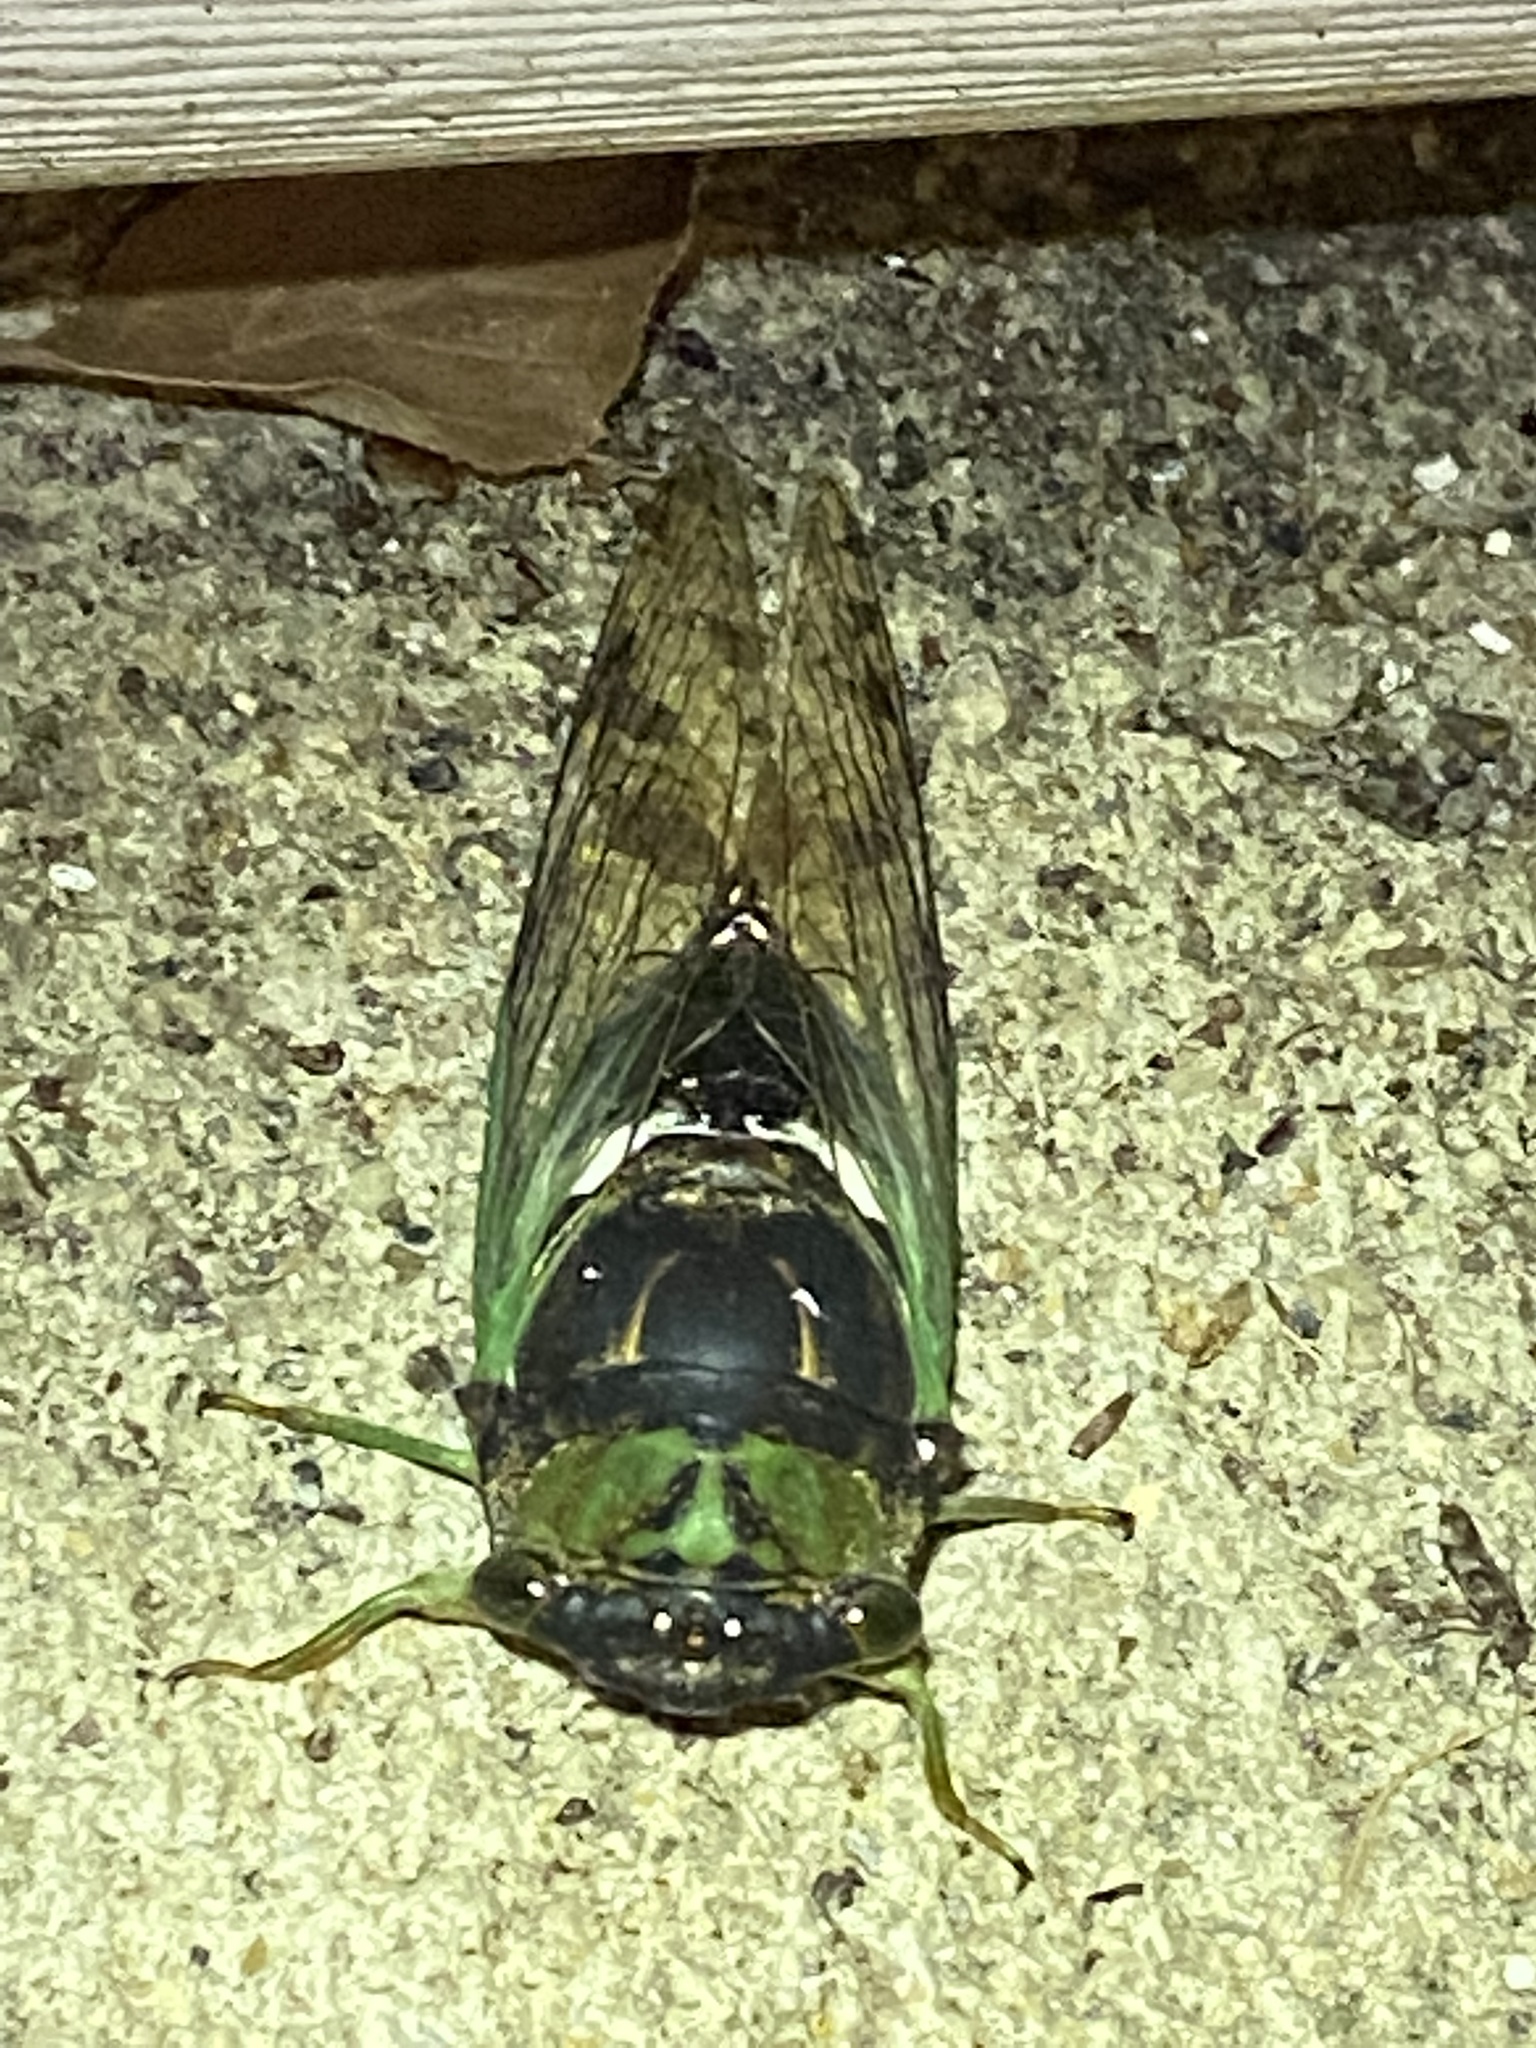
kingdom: Animalia
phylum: Arthropoda
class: Insecta
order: Hemiptera
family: Cicadidae
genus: Neotibicen
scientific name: Neotibicen tibicen
